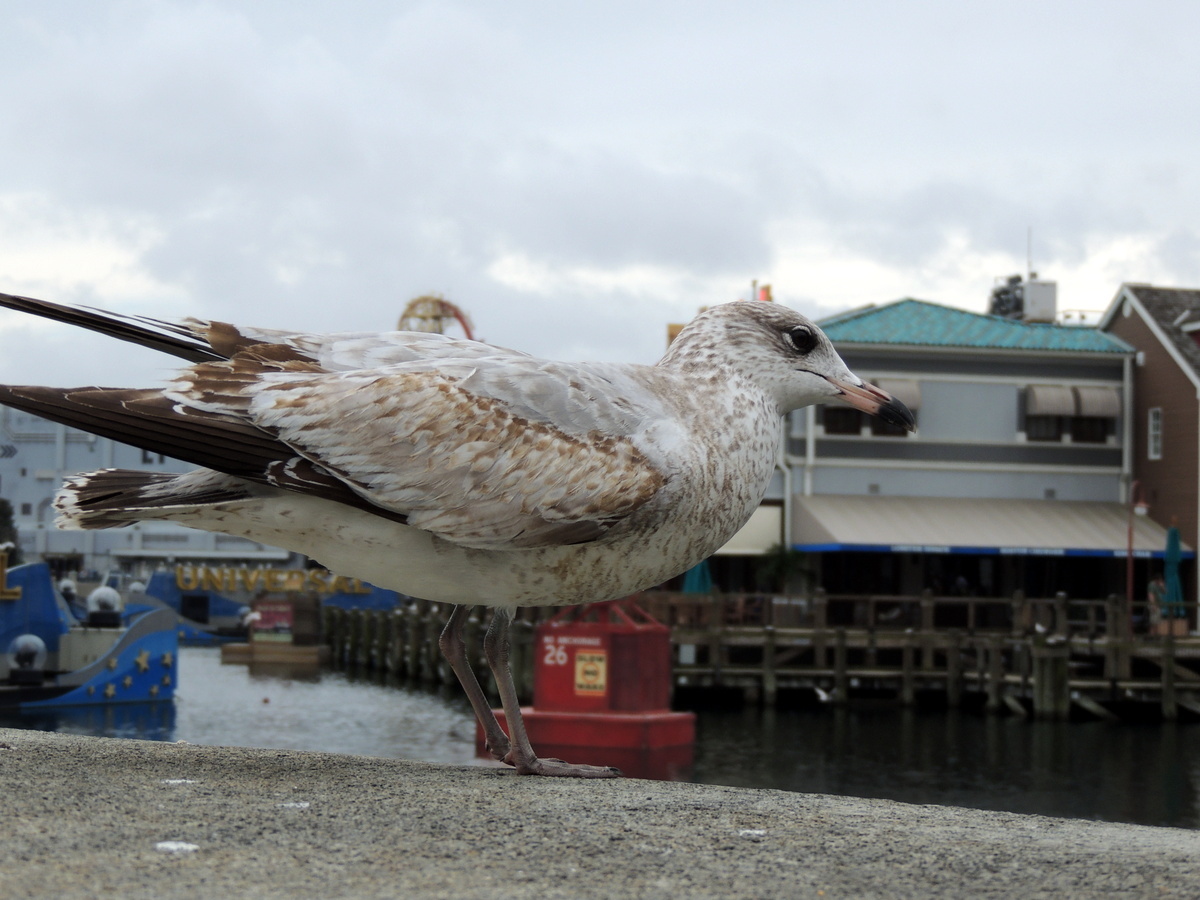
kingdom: Animalia
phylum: Chordata
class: Aves
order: Charadriiformes
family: Laridae
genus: Larus
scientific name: Larus delawarensis
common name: Ring-billed gull
